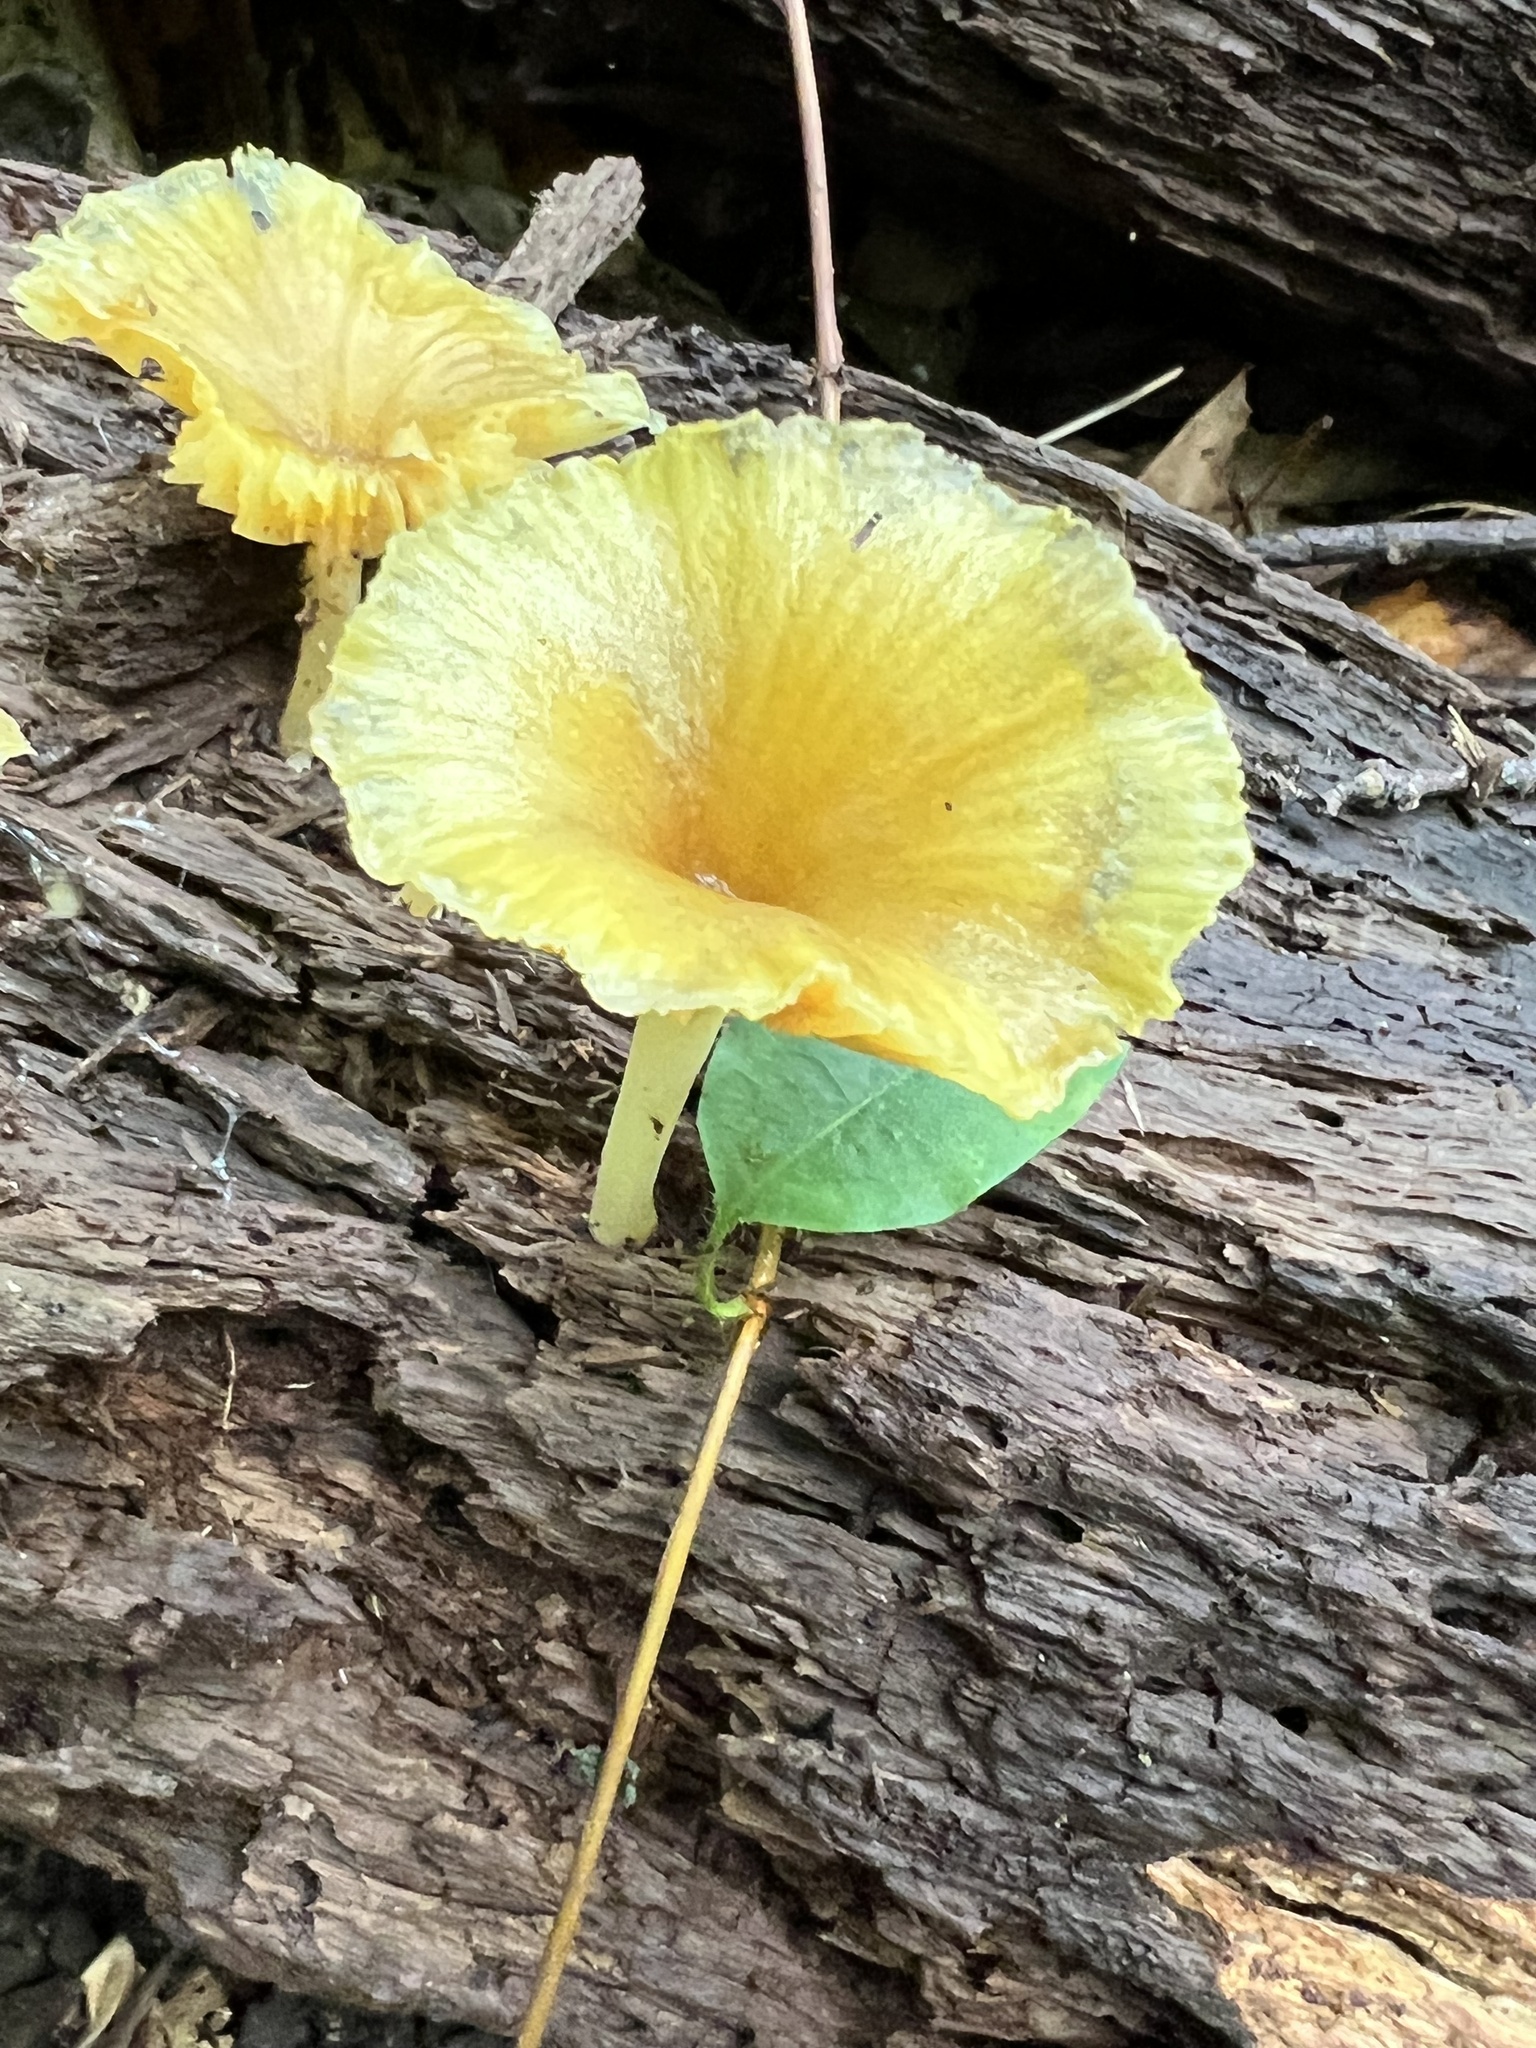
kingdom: Fungi
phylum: Basidiomycota
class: Agaricomycetes
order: Agaricales
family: Marasmiaceae
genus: Gerronema
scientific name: Gerronema strombodes
